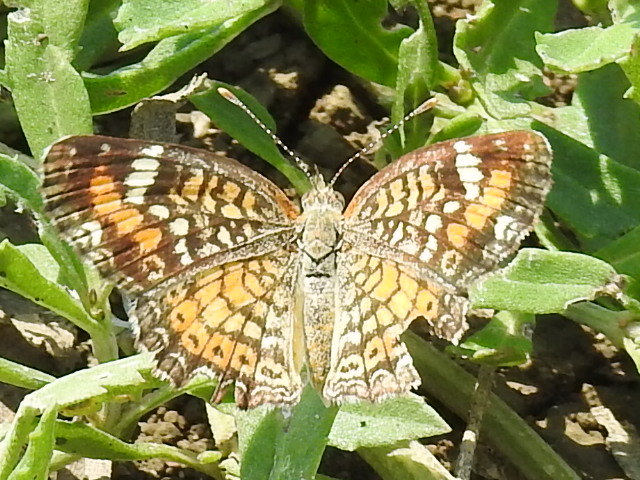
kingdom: Animalia
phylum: Arthropoda
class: Insecta
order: Lepidoptera
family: Nymphalidae
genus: Phyciodes
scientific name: Phyciodes phaon
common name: Phaon crescent
